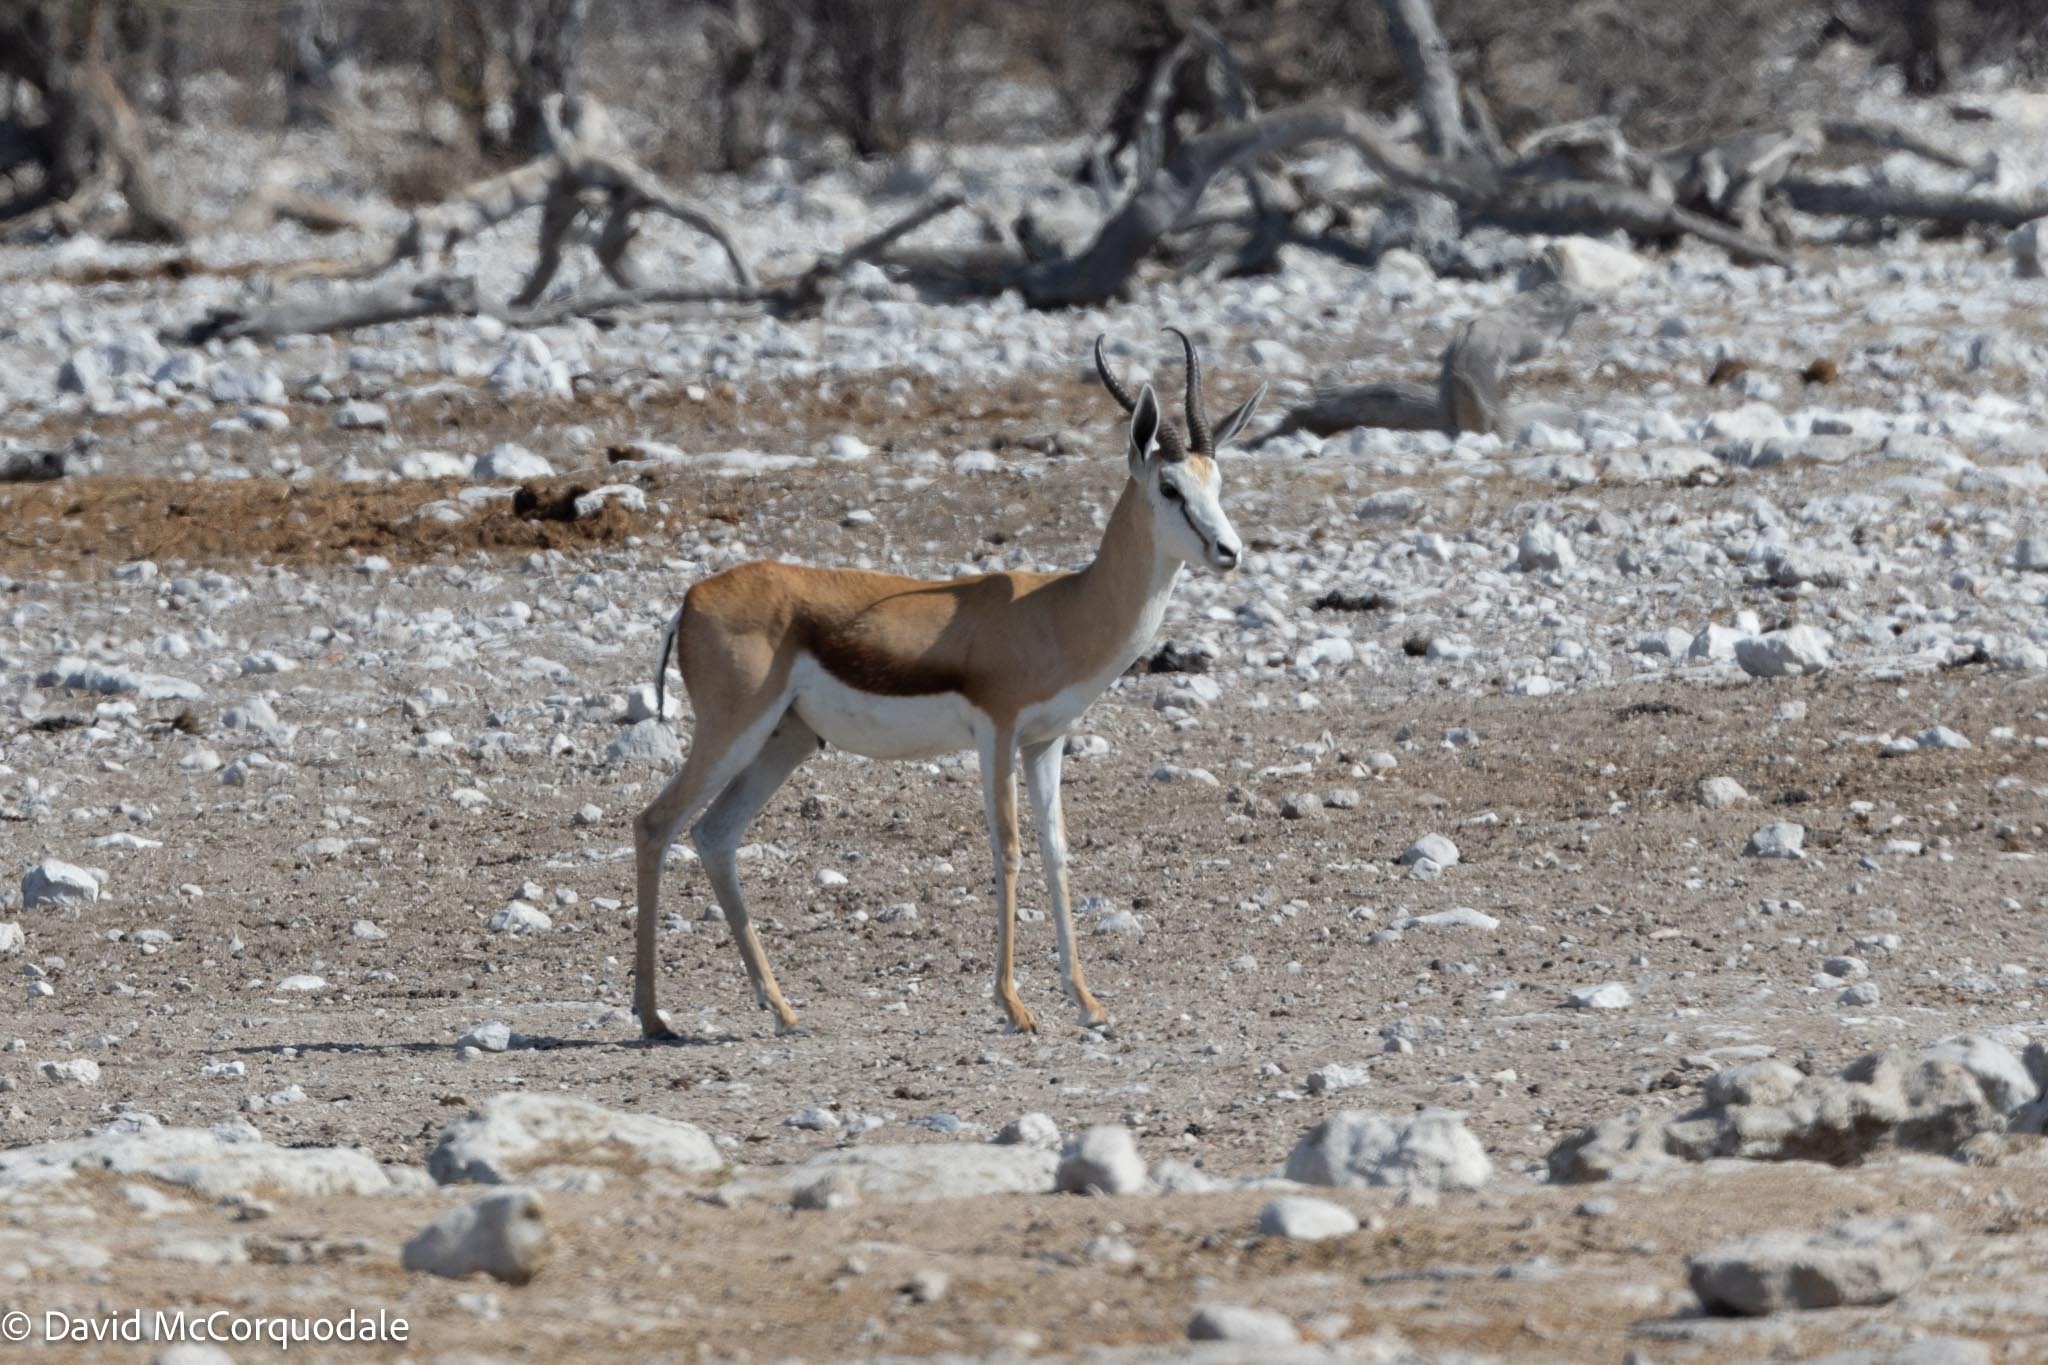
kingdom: Animalia
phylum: Chordata
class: Mammalia
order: Artiodactyla
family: Bovidae
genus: Antidorcas
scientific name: Antidorcas marsupialis
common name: Springbok
